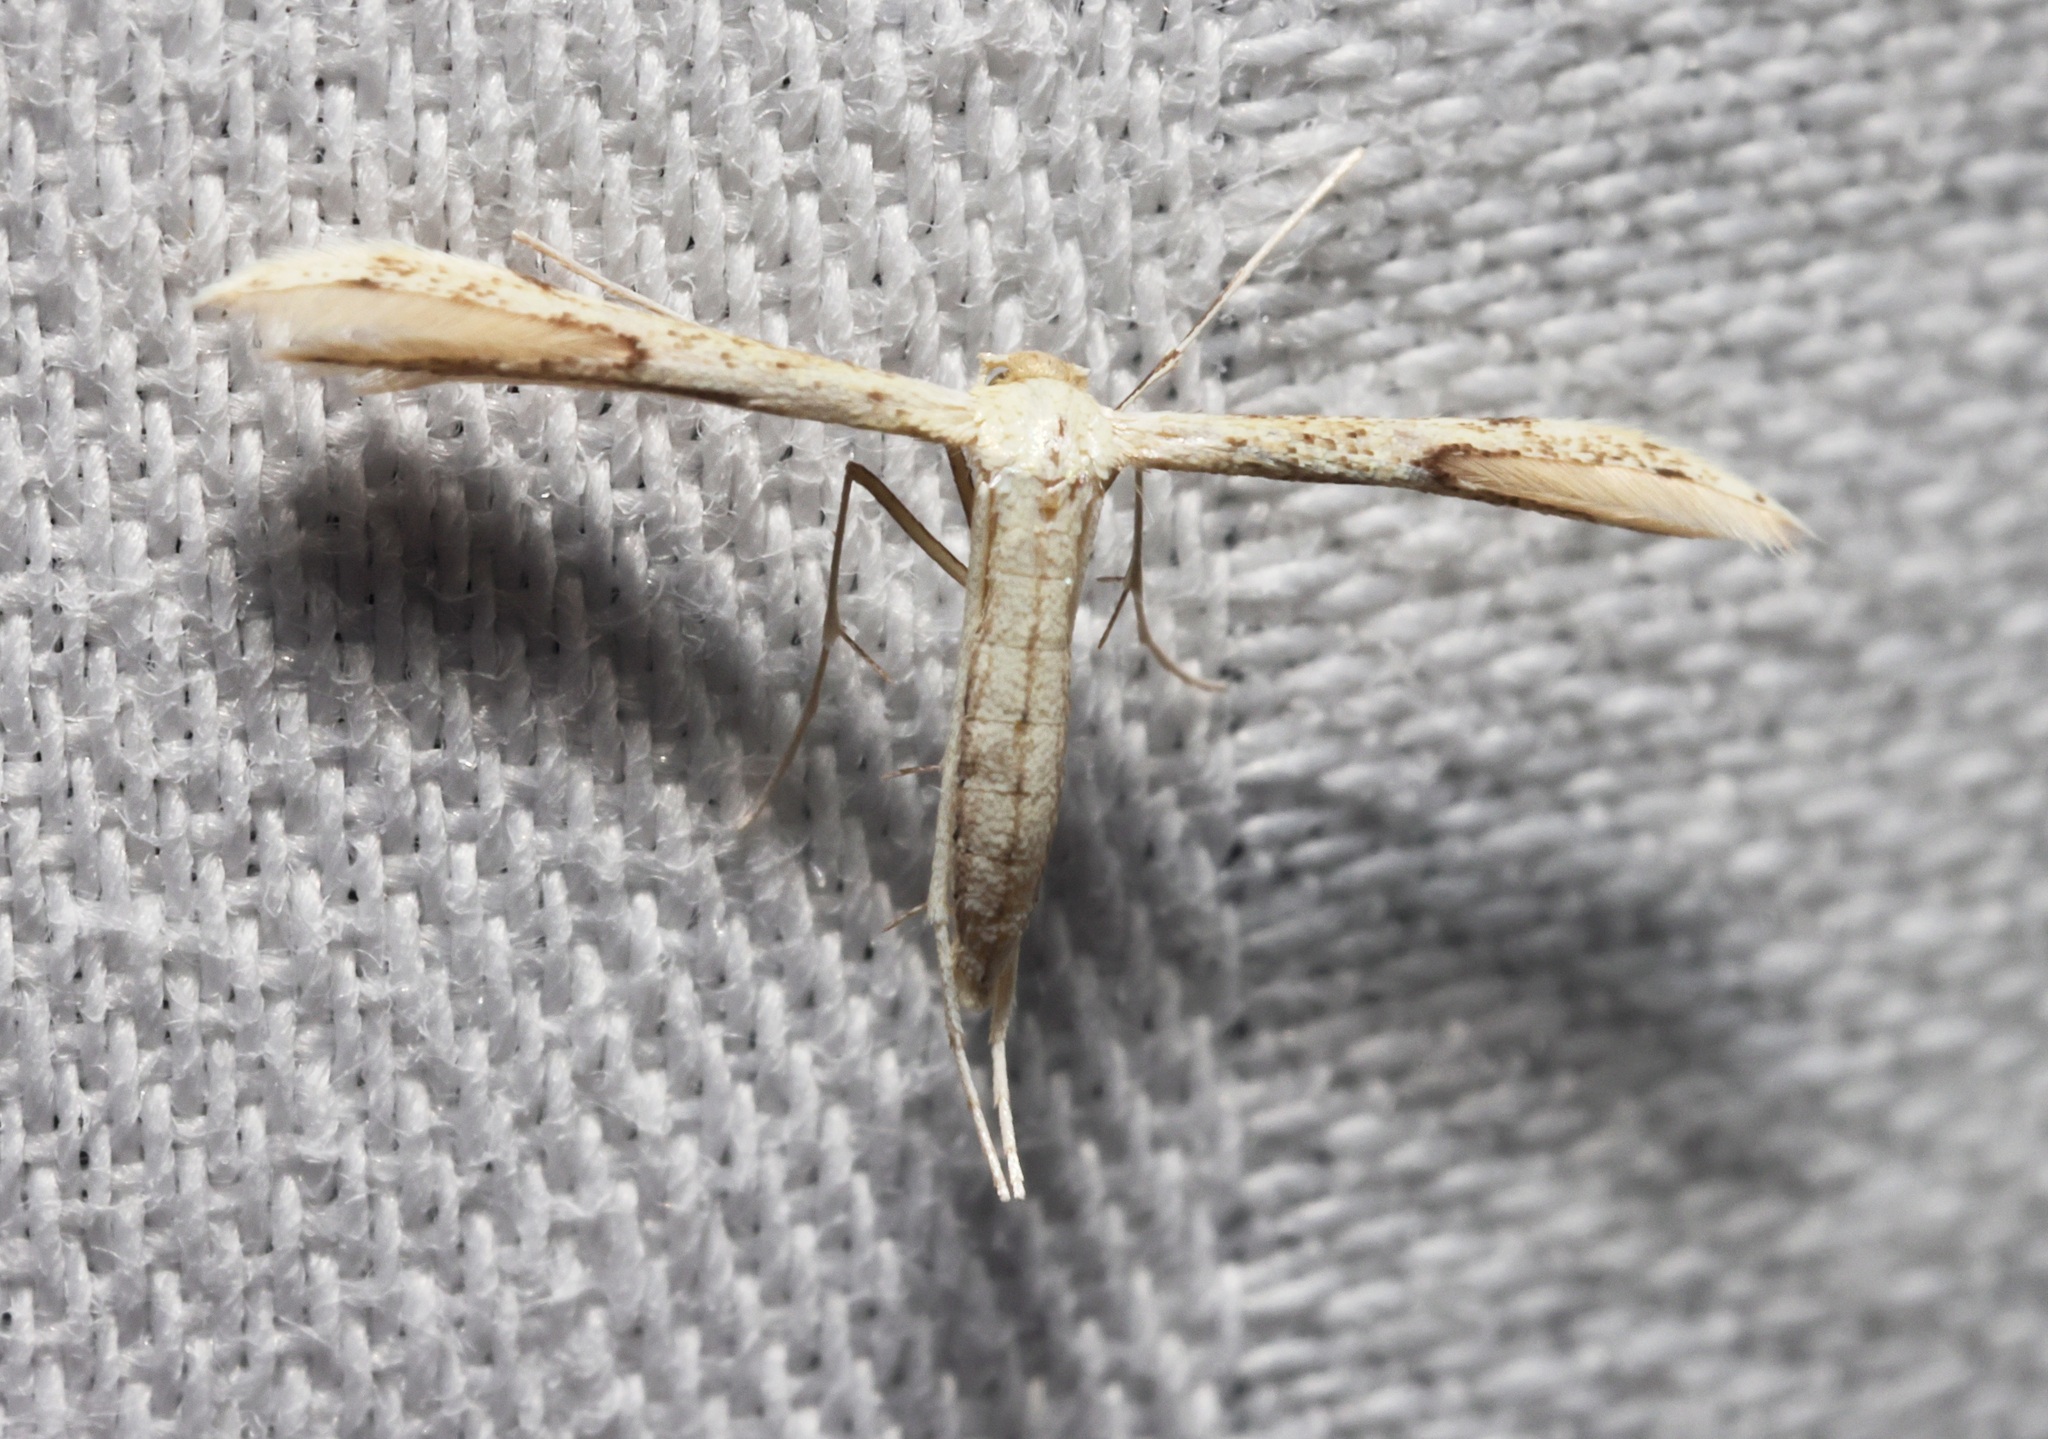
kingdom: Animalia
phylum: Arthropoda
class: Insecta
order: Lepidoptera
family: Pterophoridae
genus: Adaina
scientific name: Adaina microdactyla
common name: Hemp-agrimony plume
